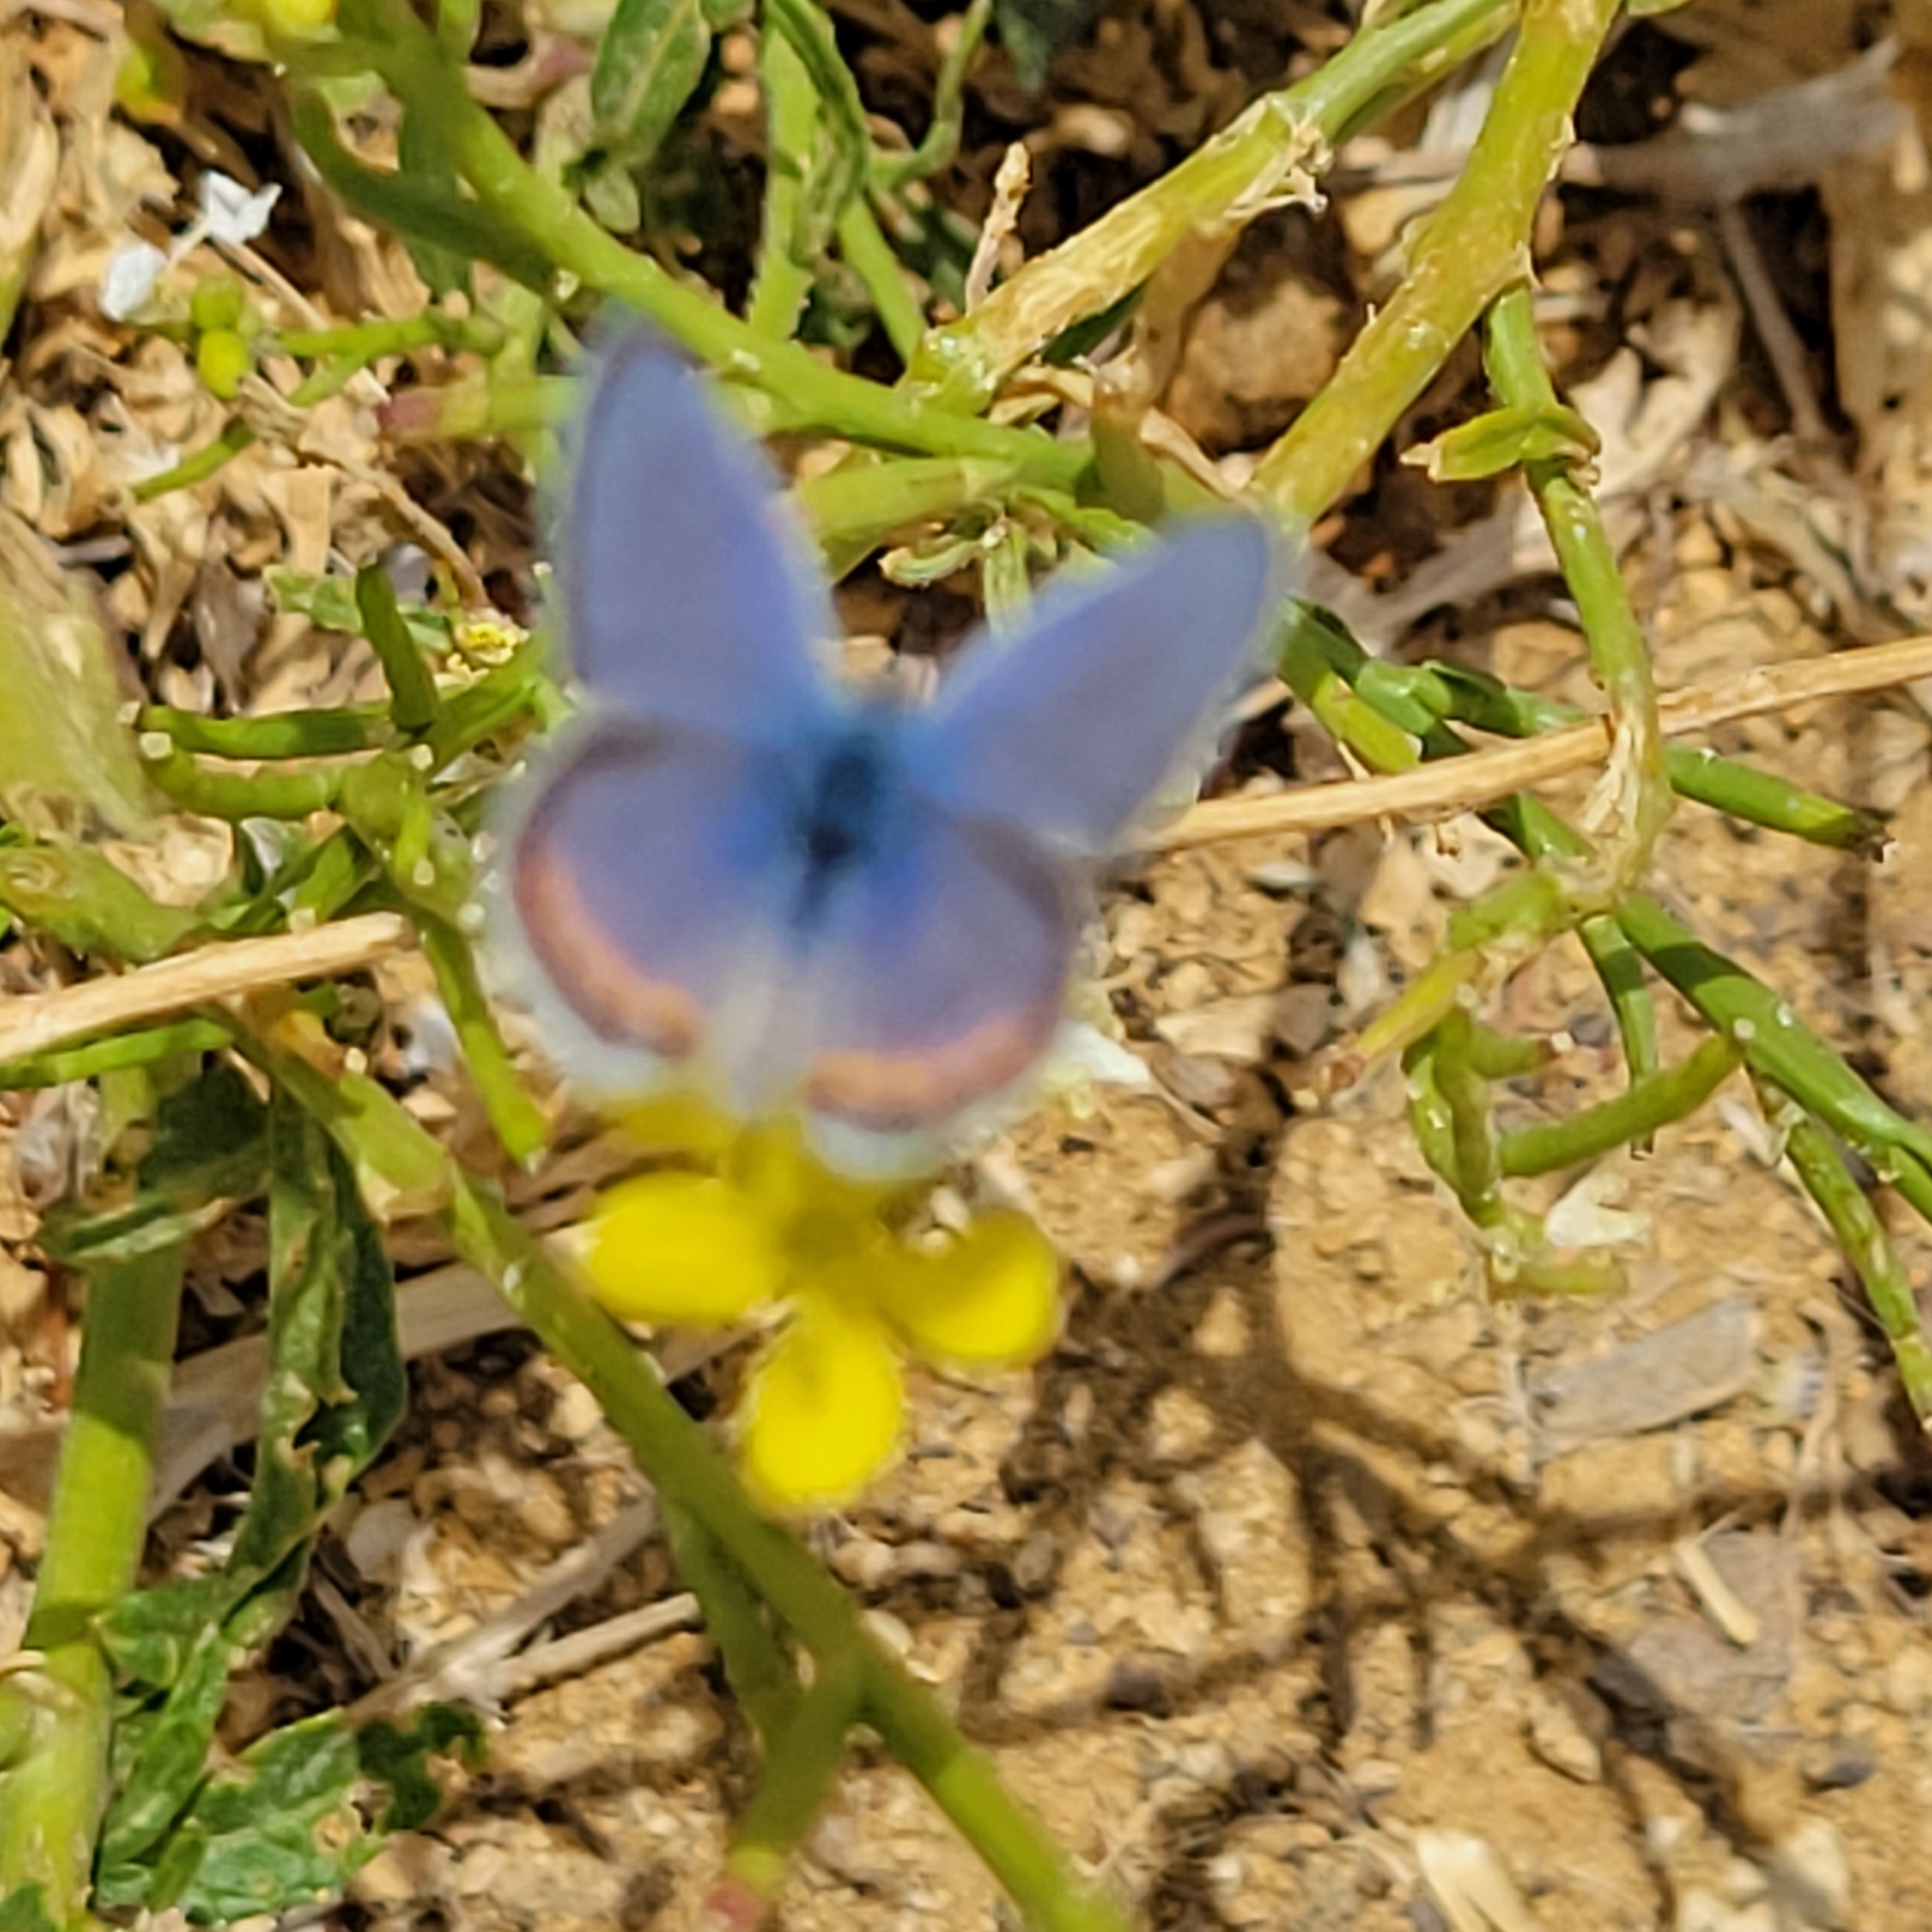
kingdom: Animalia
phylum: Arthropoda
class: Insecta
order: Lepidoptera
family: Lycaenidae
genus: Icaricia
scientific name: Icaricia acmon
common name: Acmon blue
